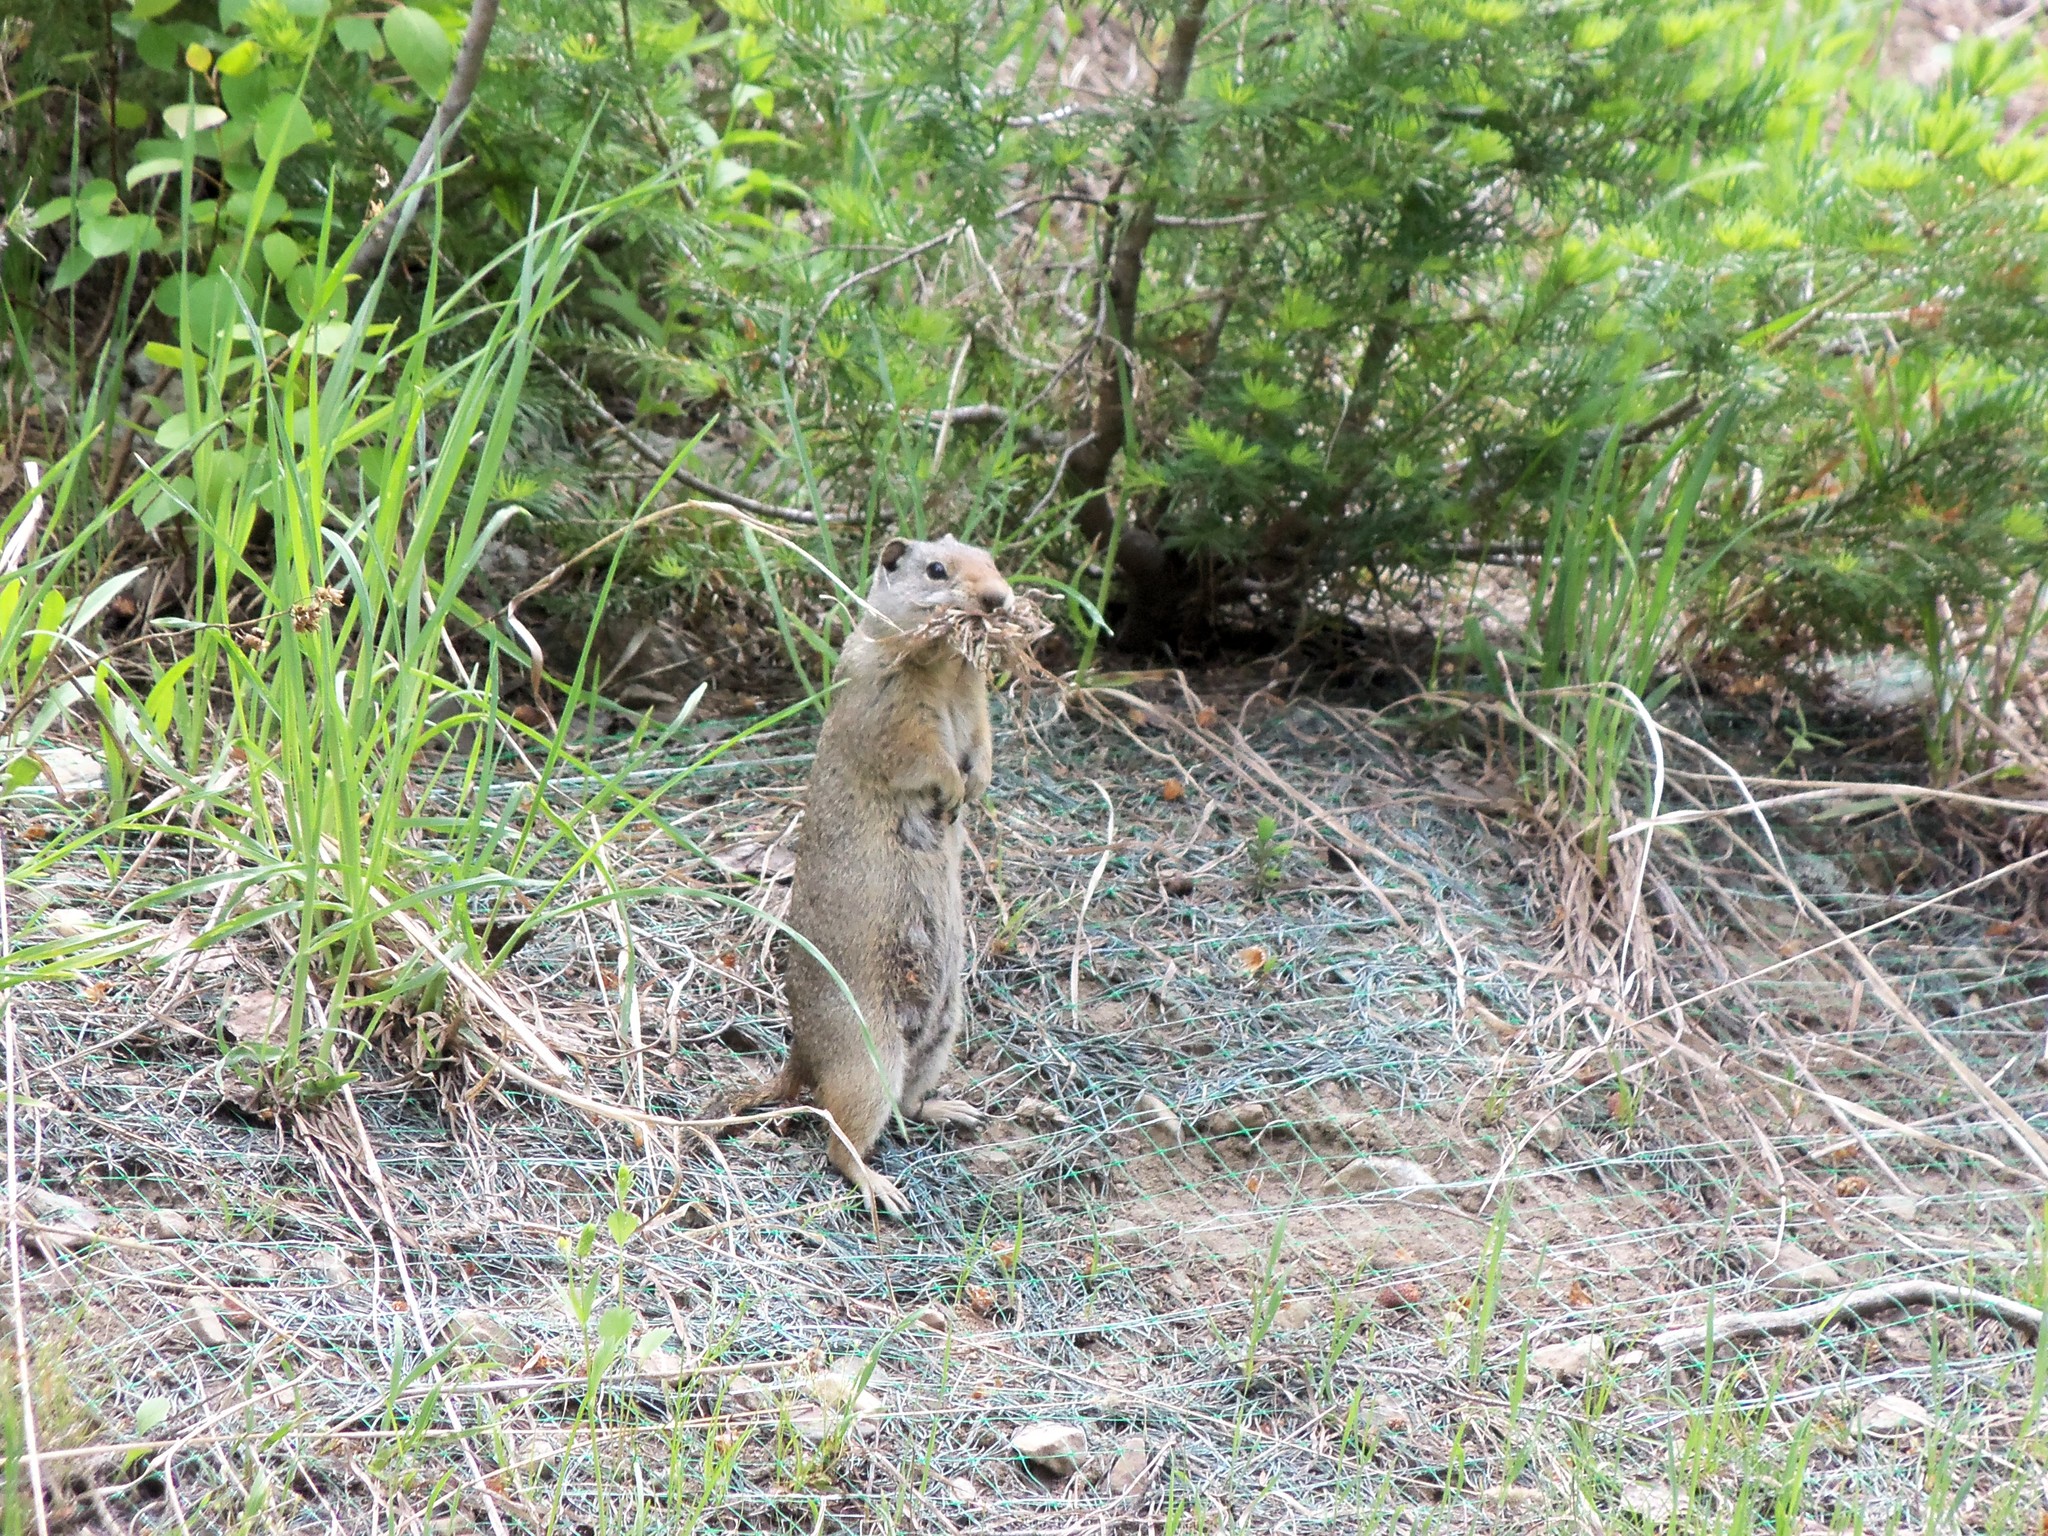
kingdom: Animalia
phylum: Chordata
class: Mammalia
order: Rodentia
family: Sciuridae
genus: Urocitellus
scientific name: Urocitellus armatus
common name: Uinta ground squirrel
